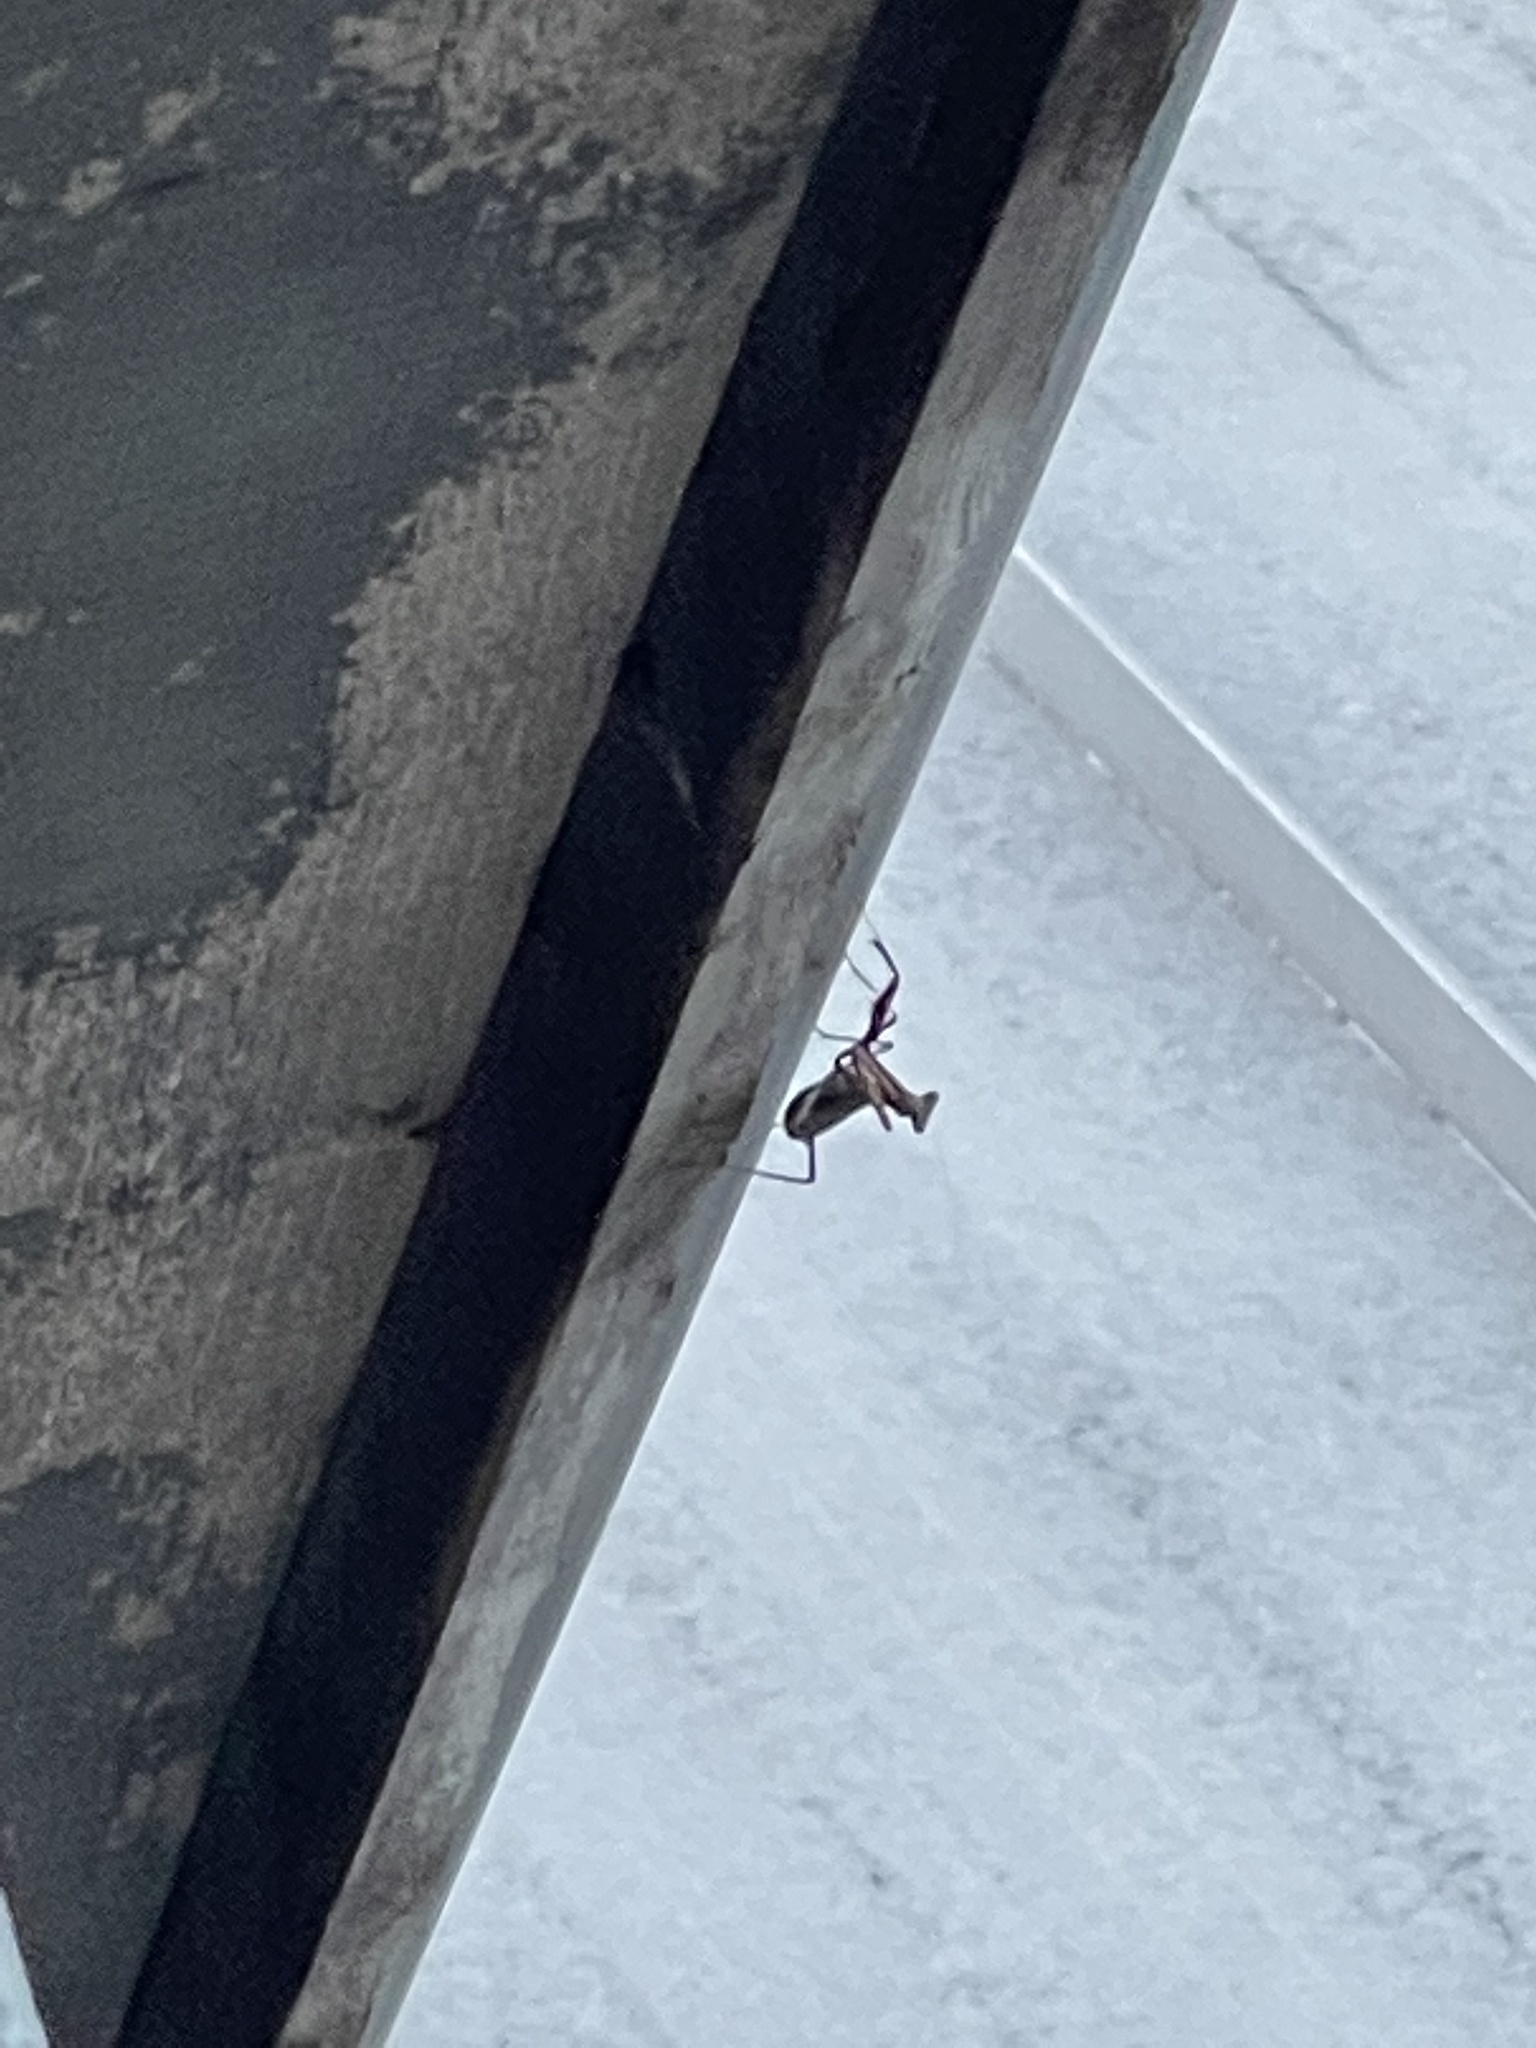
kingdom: Animalia
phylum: Arthropoda
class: Insecta
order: Mantodea
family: Mantidae
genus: Stagmomantis
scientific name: Stagmomantis carolina
